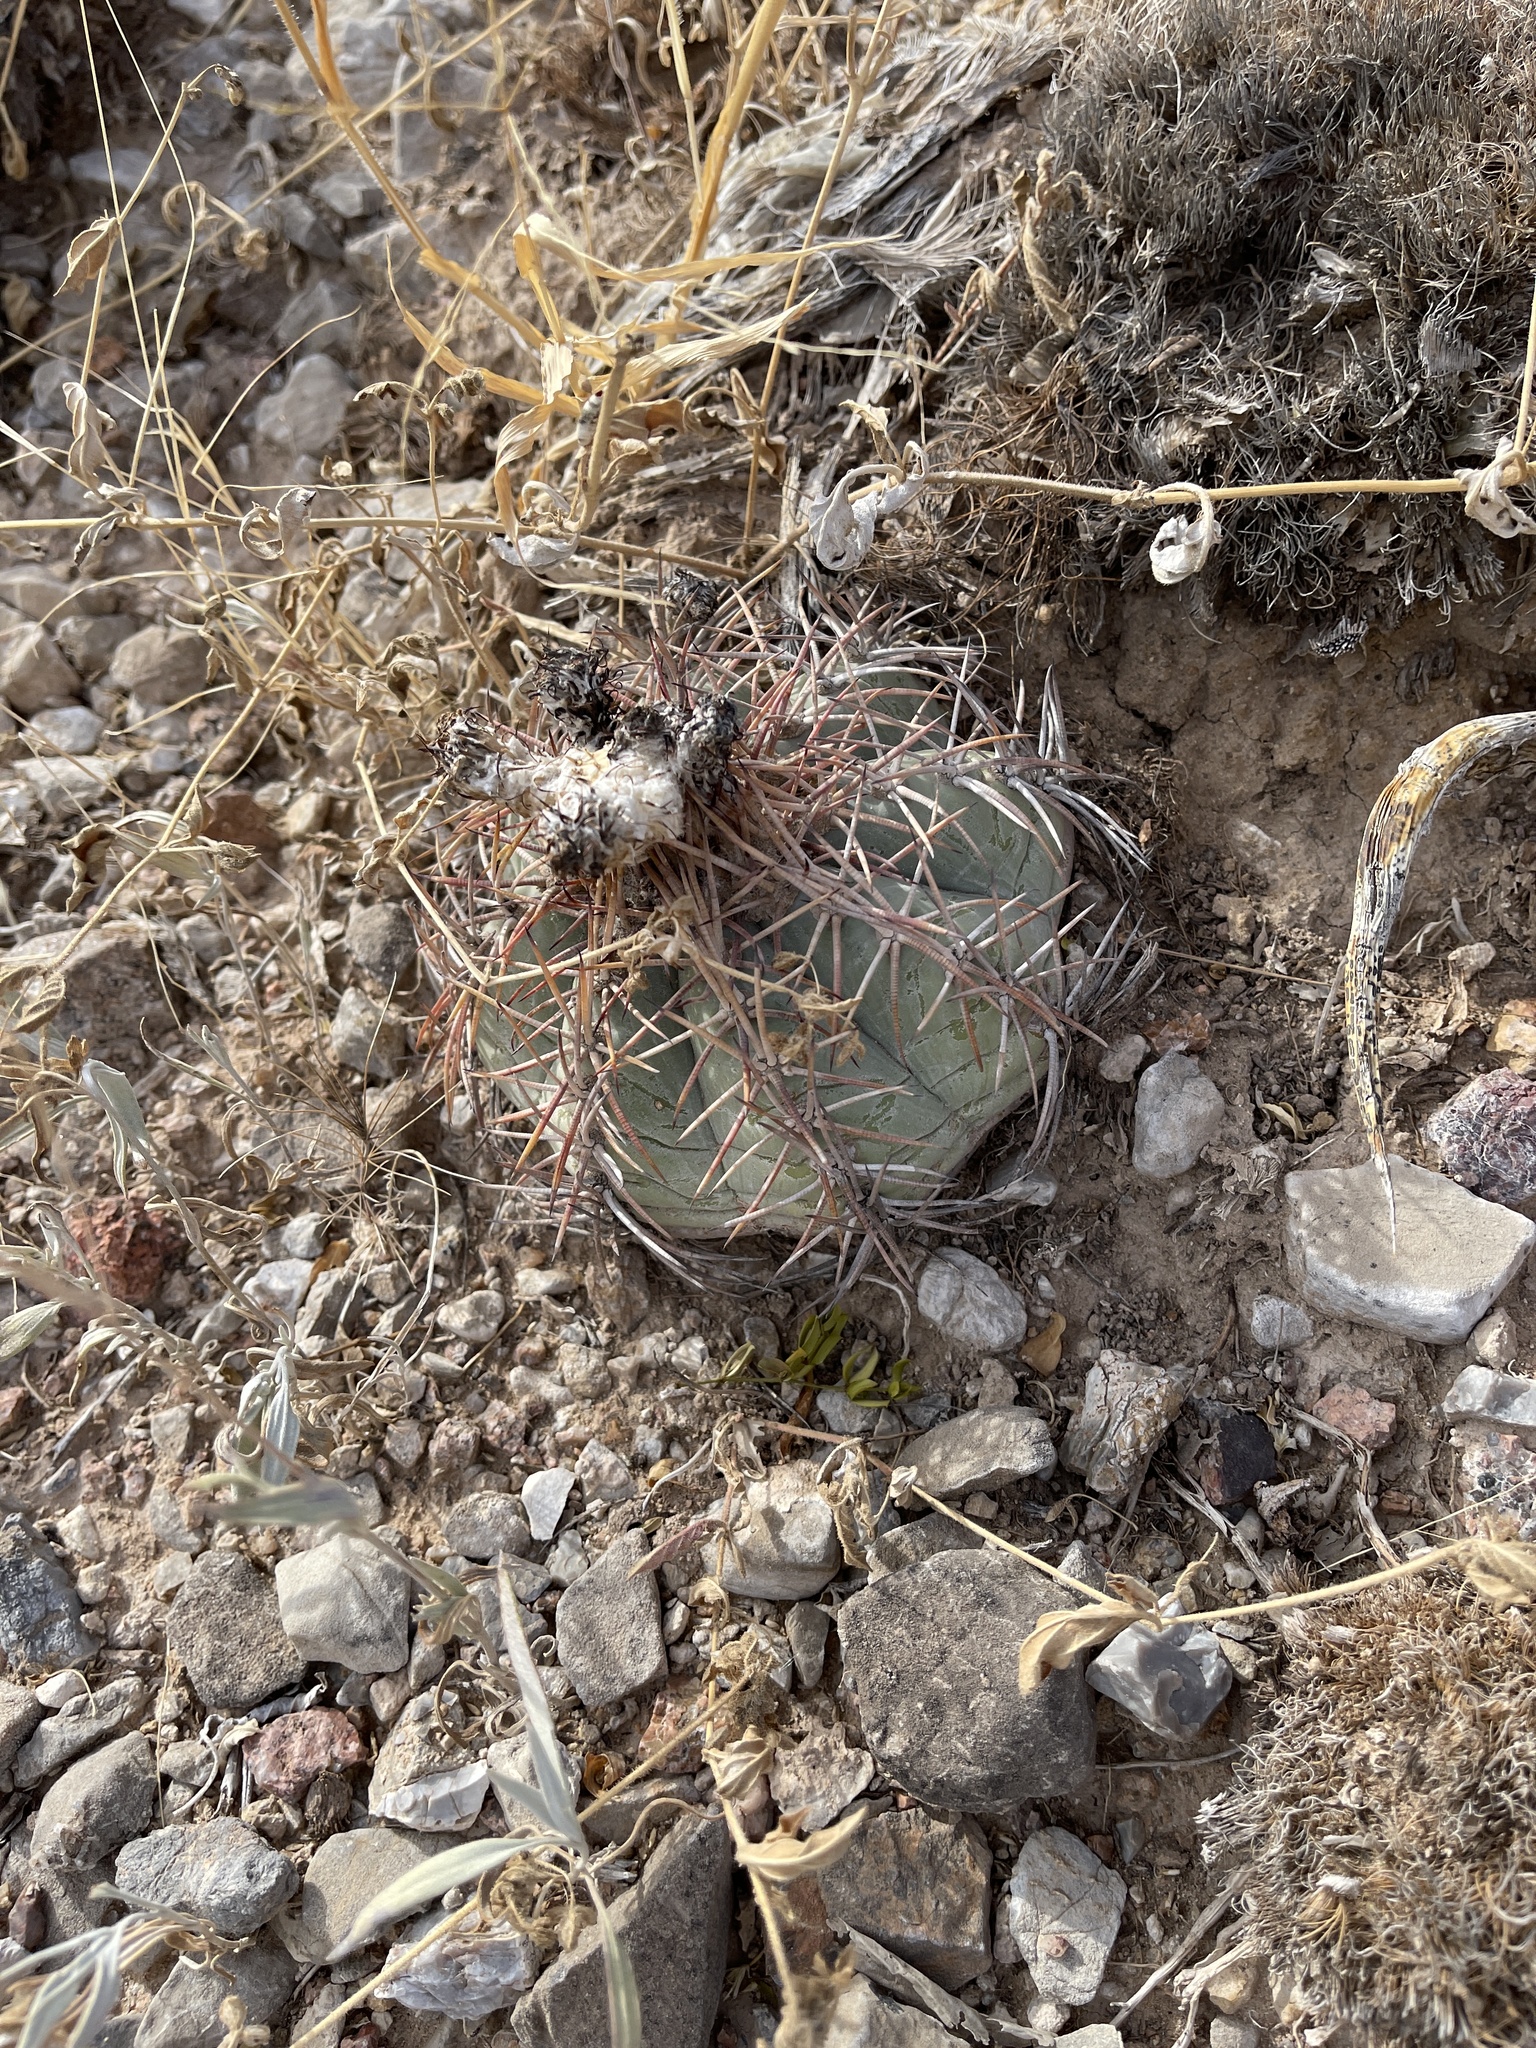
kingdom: Plantae
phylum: Tracheophyta
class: Magnoliopsida
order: Caryophyllales
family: Cactaceae
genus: Echinocactus
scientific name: Echinocactus horizonthalonius
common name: Devilshead
